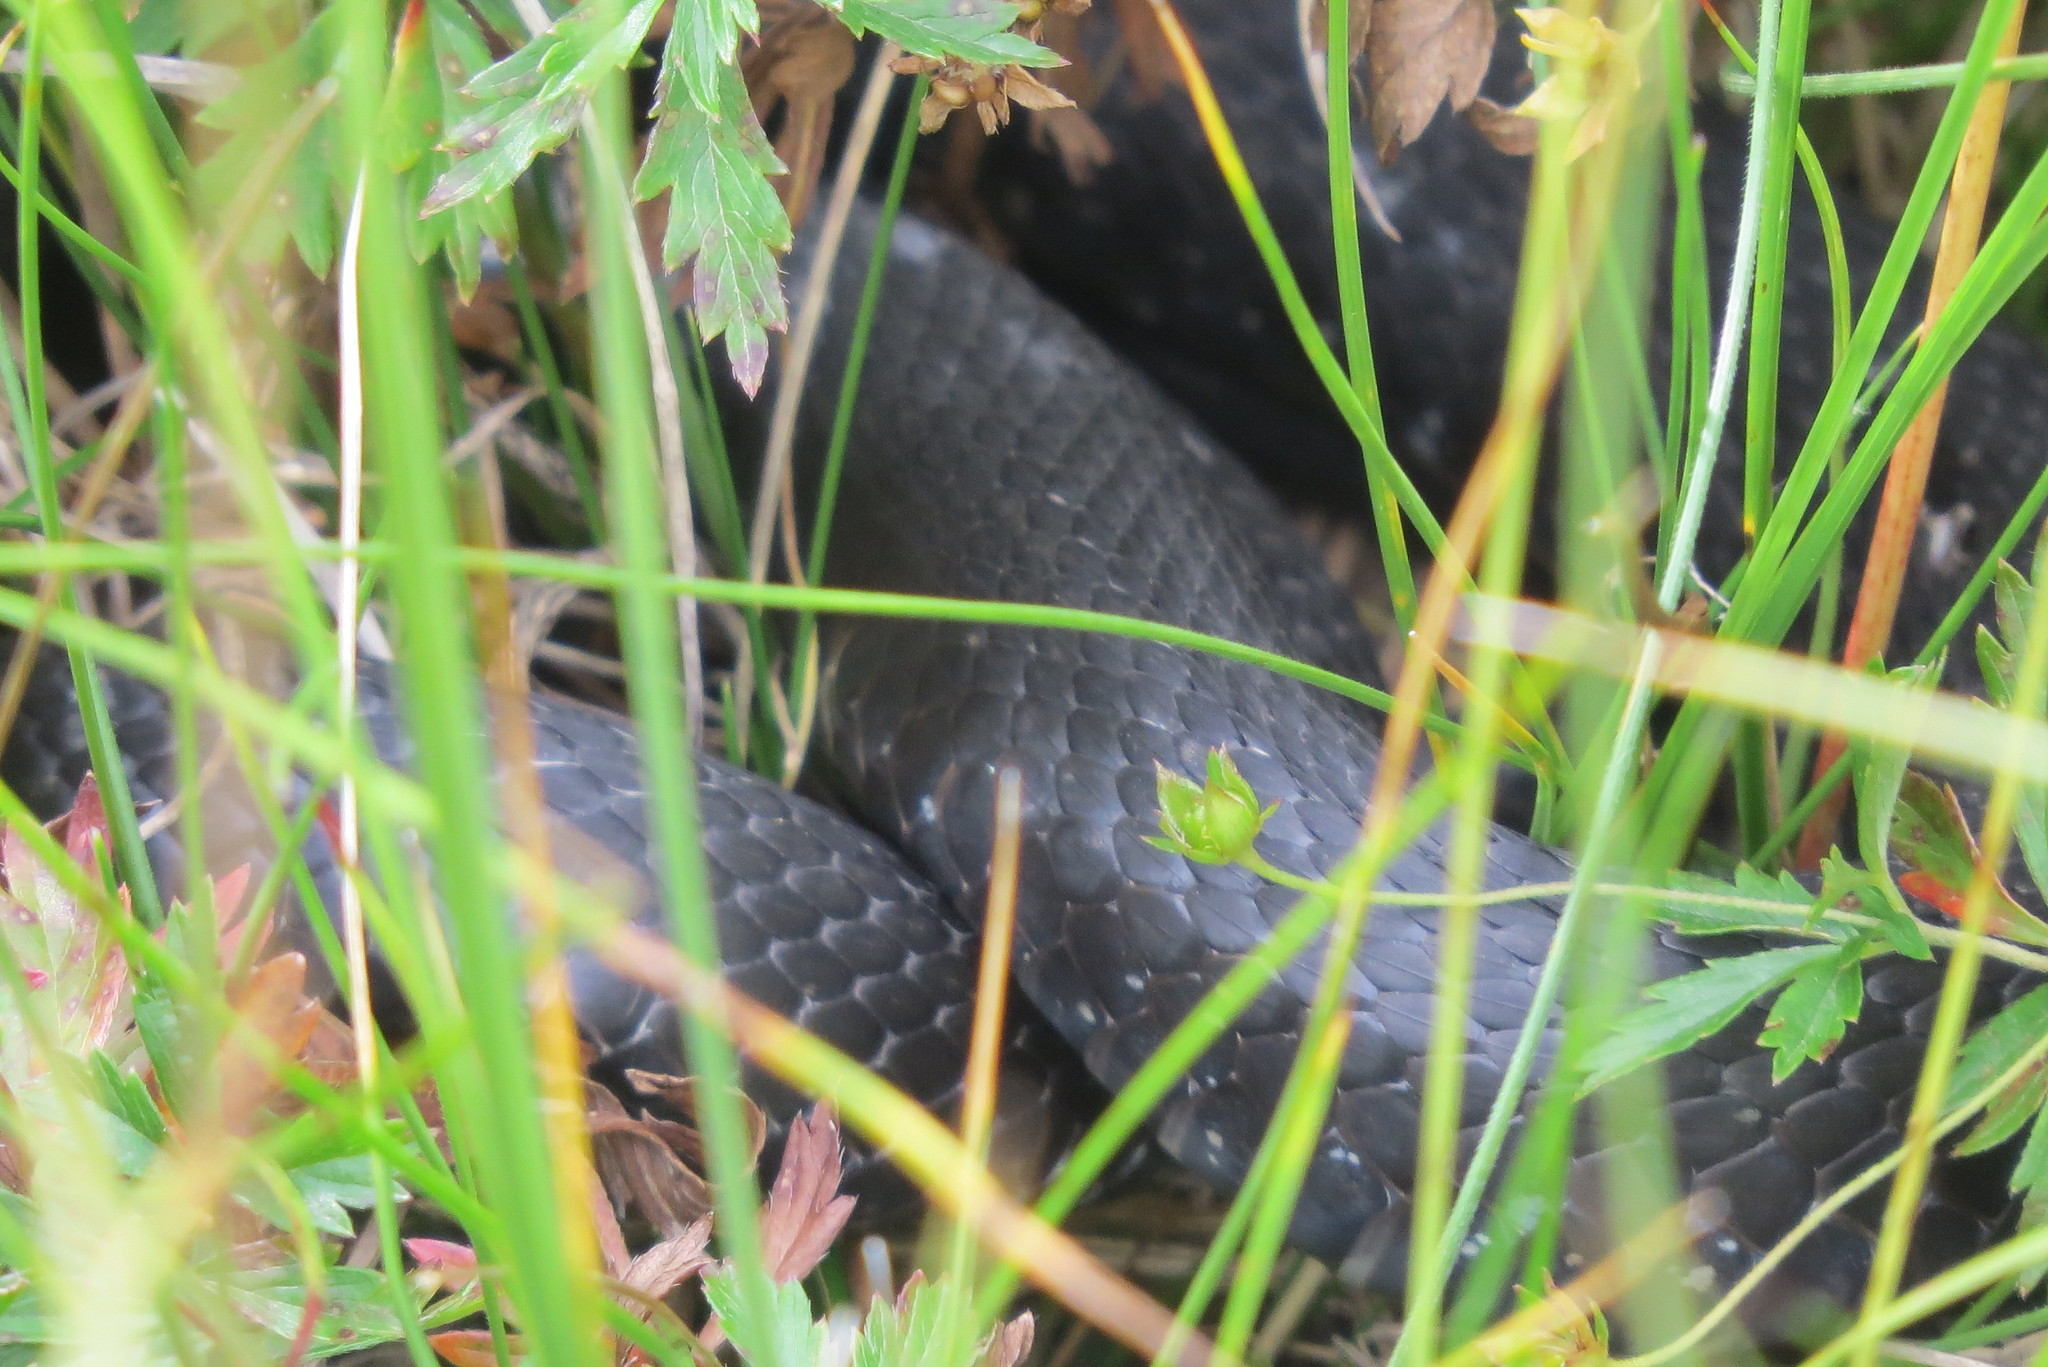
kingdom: Animalia
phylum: Chordata
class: Squamata
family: Colubridae
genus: Natrix
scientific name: Natrix helvetica
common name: Banded grass snake
